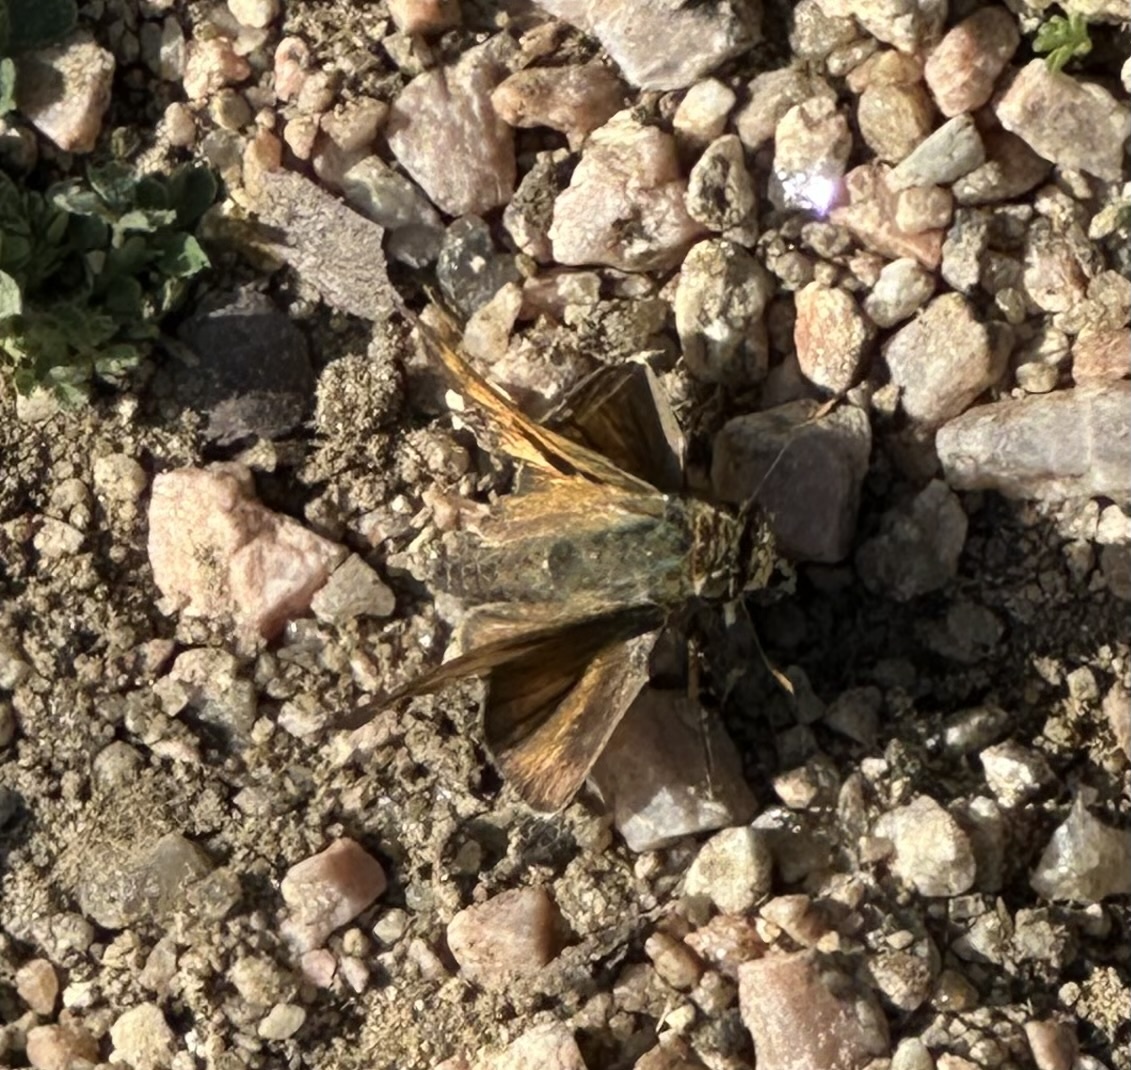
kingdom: Animalia
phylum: Arthropoda
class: Insecta
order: Lepidoptera
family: Hesperiidae
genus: Atalopedes
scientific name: Atalopedes
